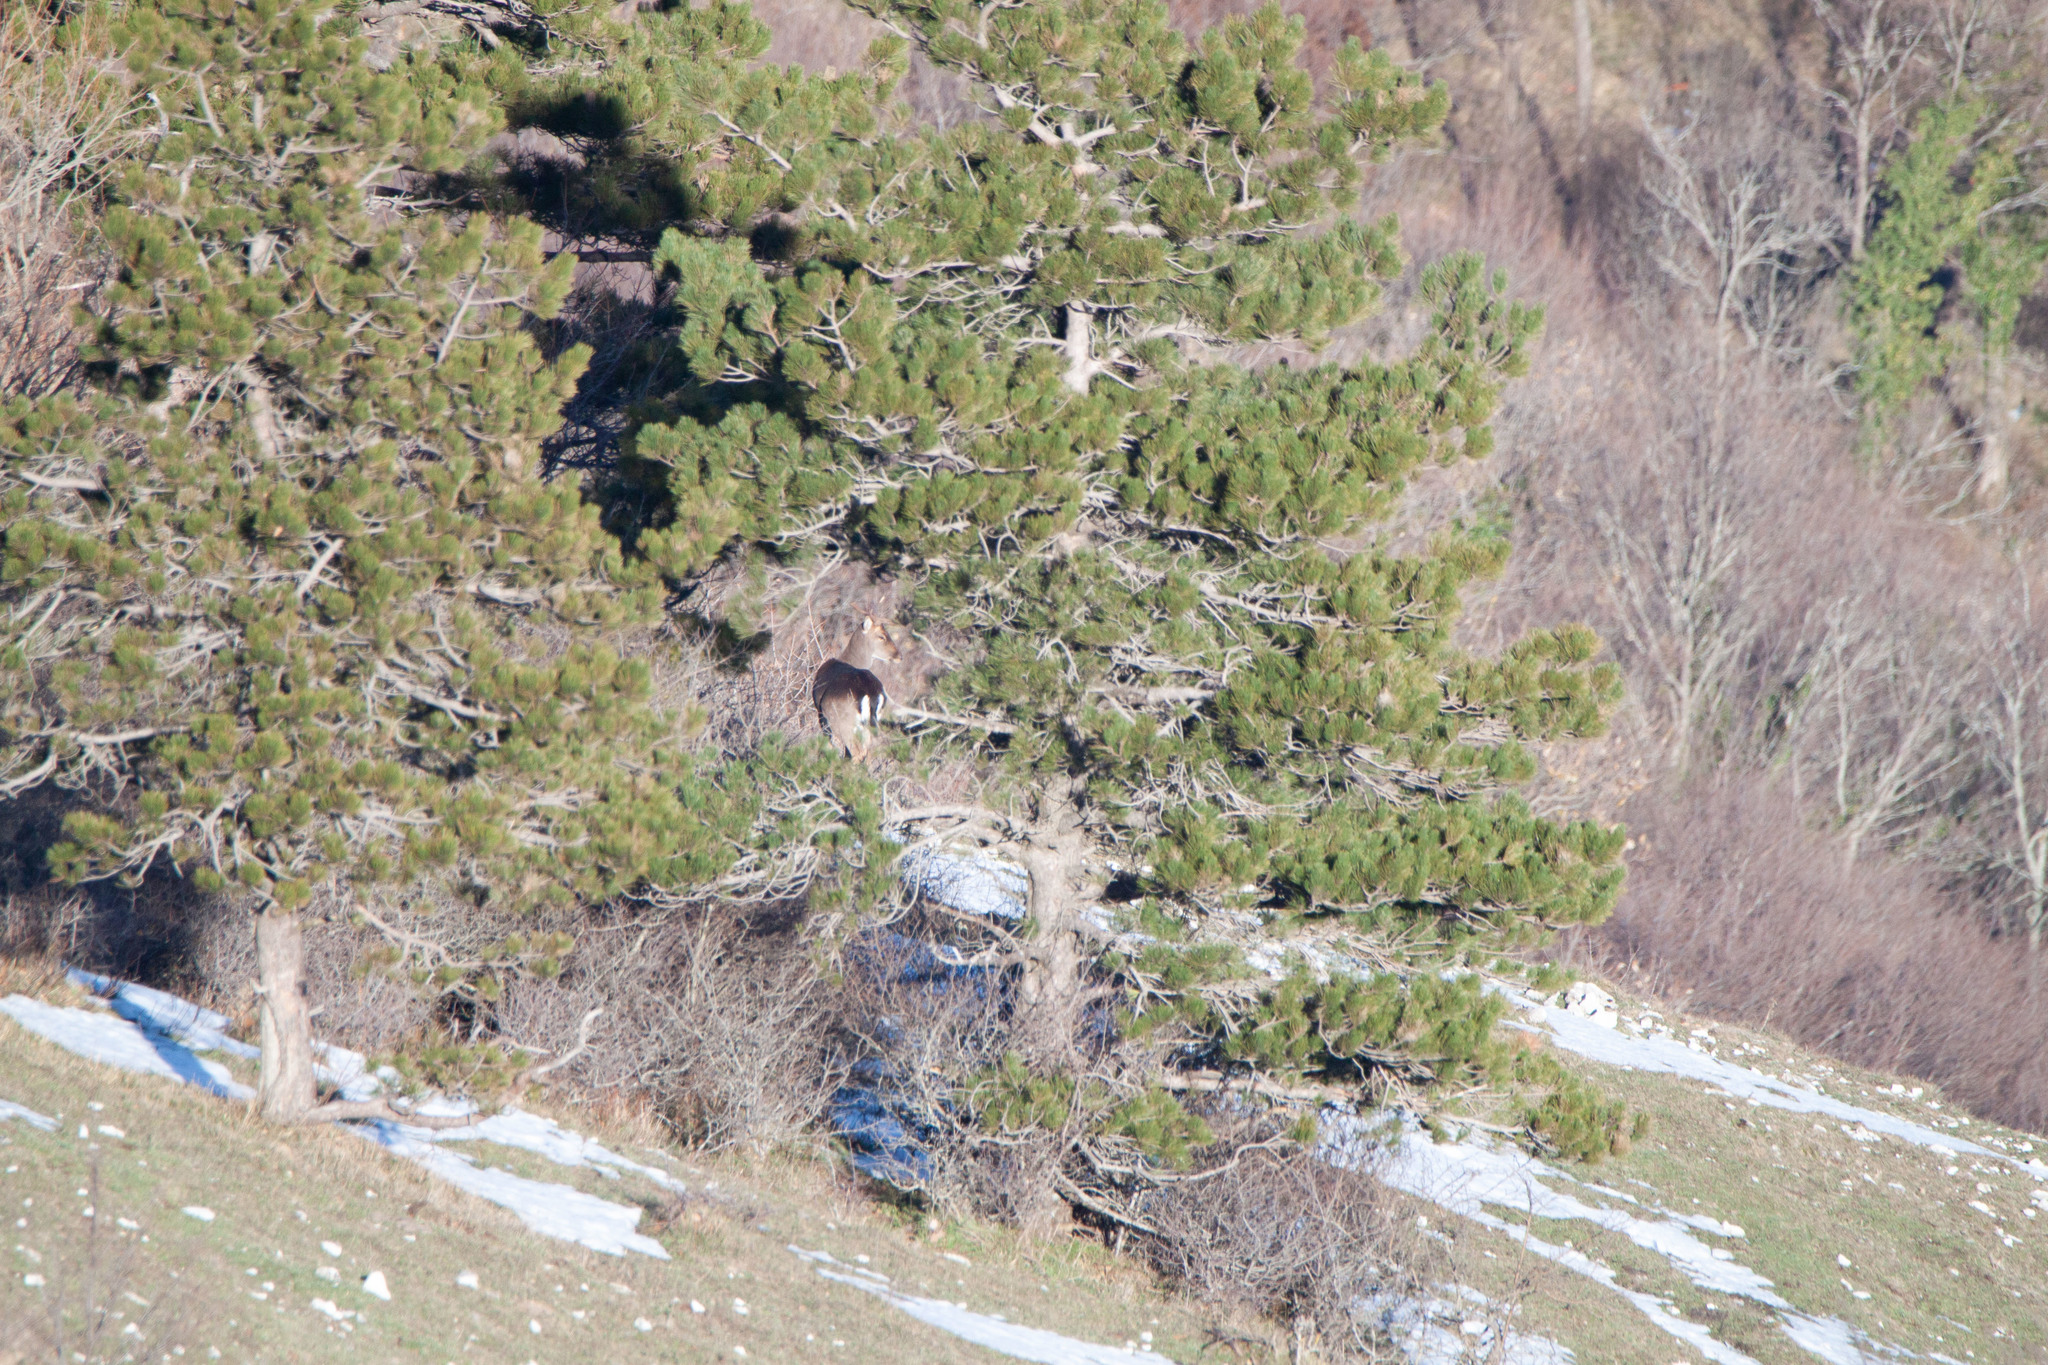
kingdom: Animalia
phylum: Chordata
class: Mammalia
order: Artiodactyla
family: Cervidae
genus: Dama
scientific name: Dama dama
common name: Fallow deer
